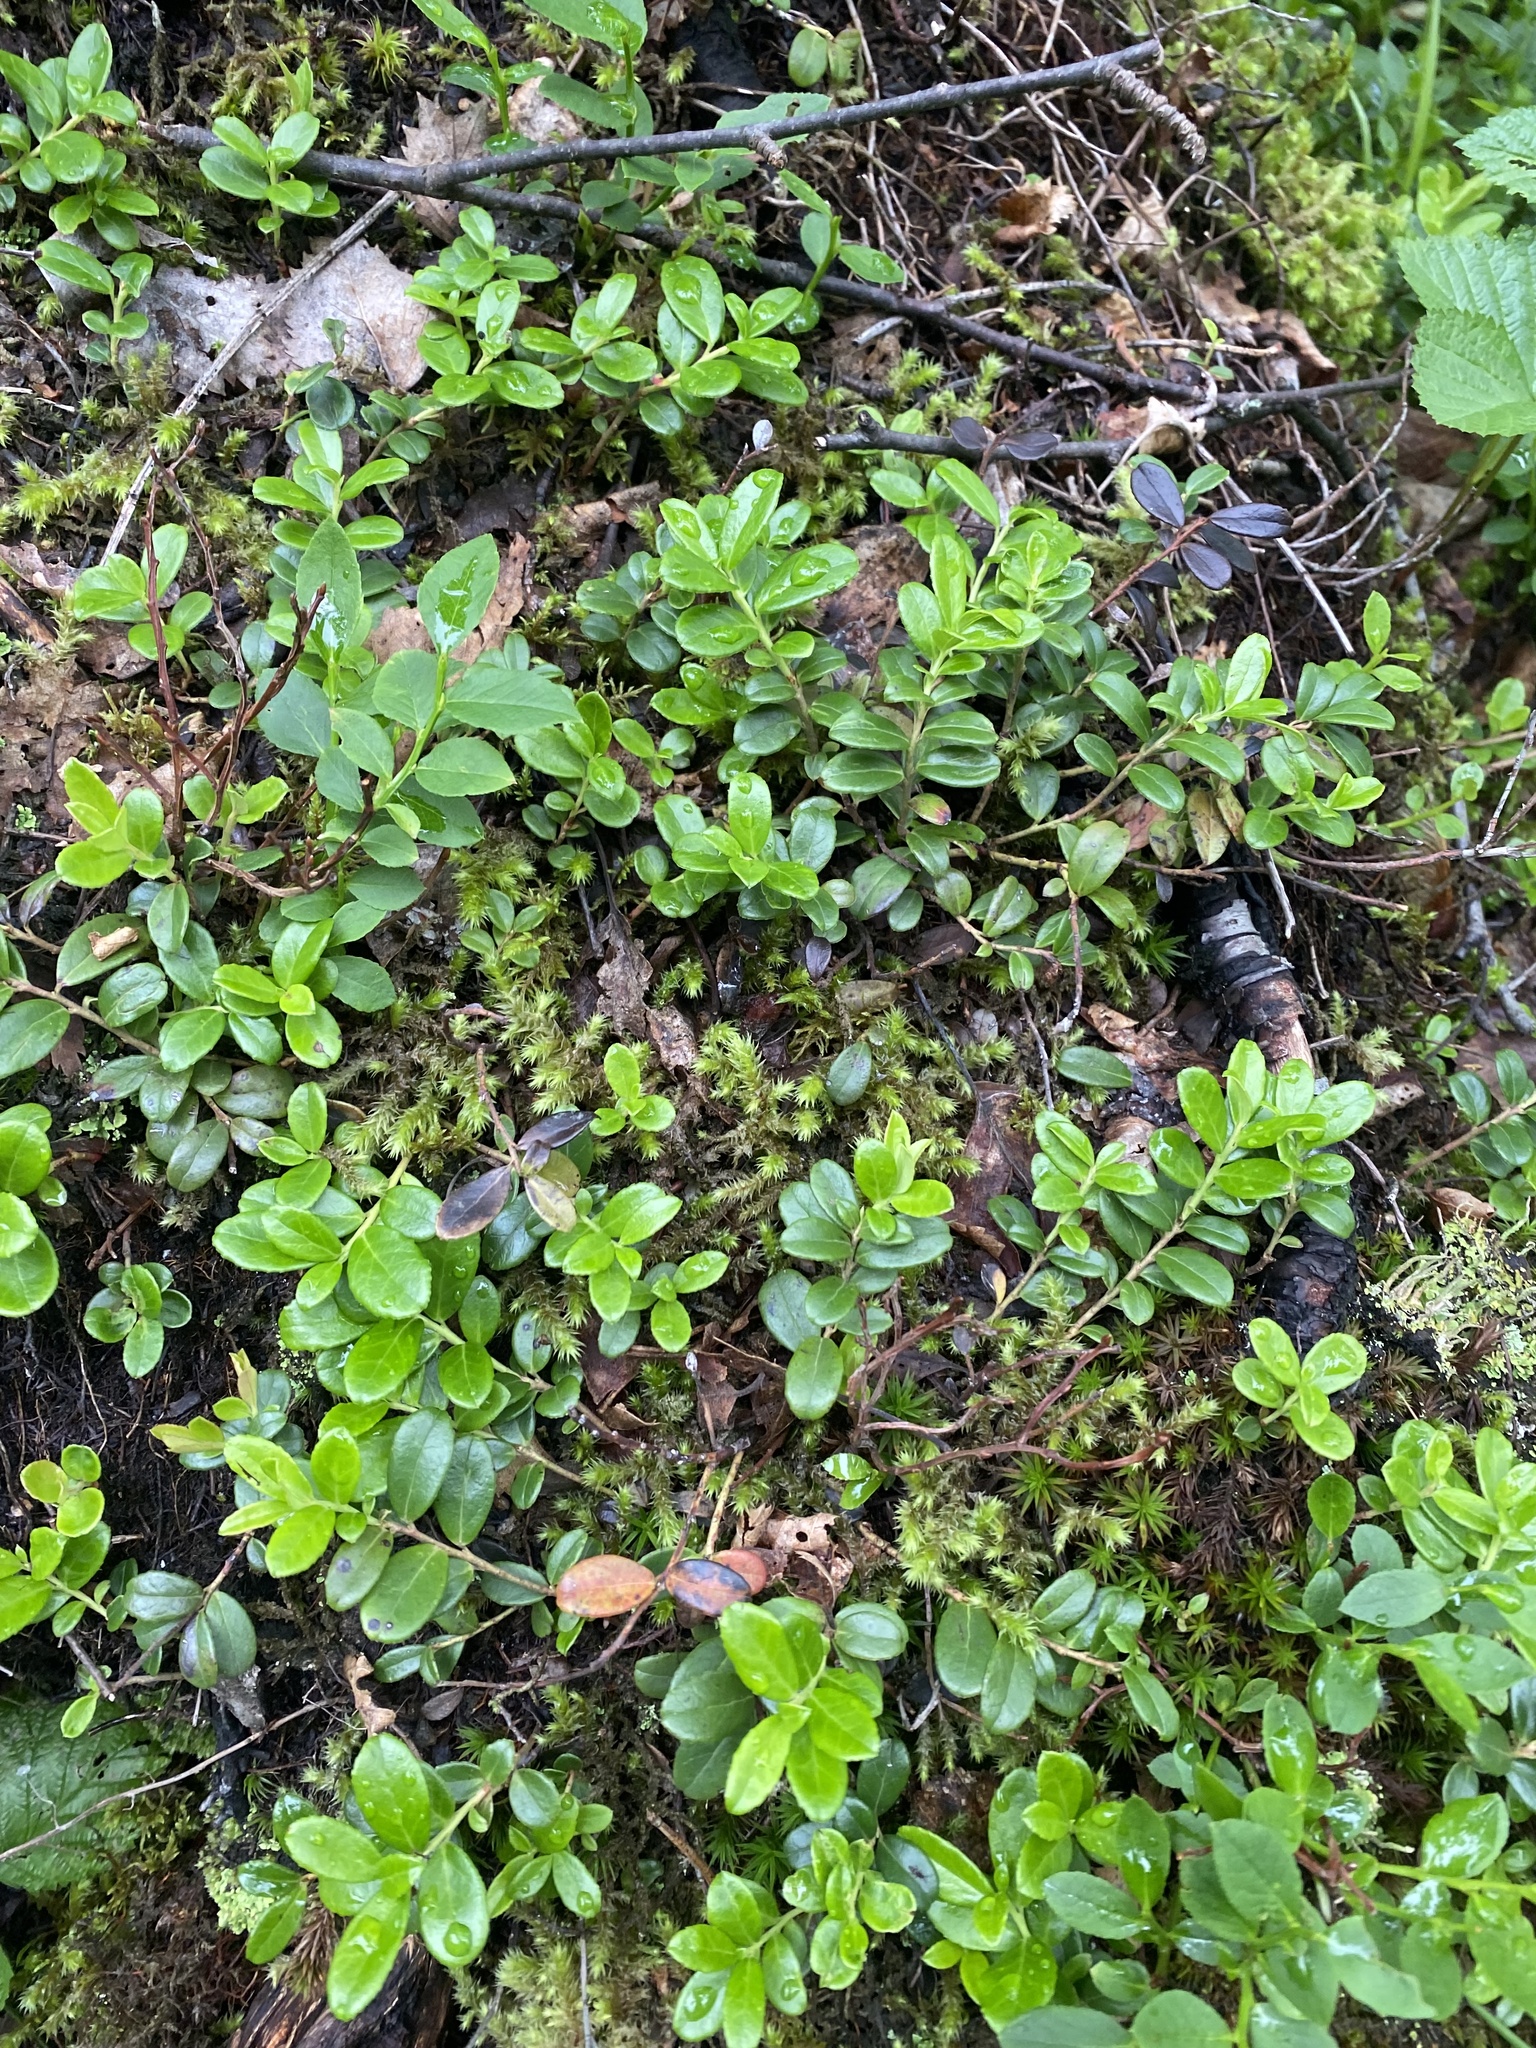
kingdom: Plantae
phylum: Tracheophyta
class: Magnoliopsida
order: Ericales
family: Ericaceae
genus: Vaccinium
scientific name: Vaccinium vitis-idaea
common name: Cowberry
